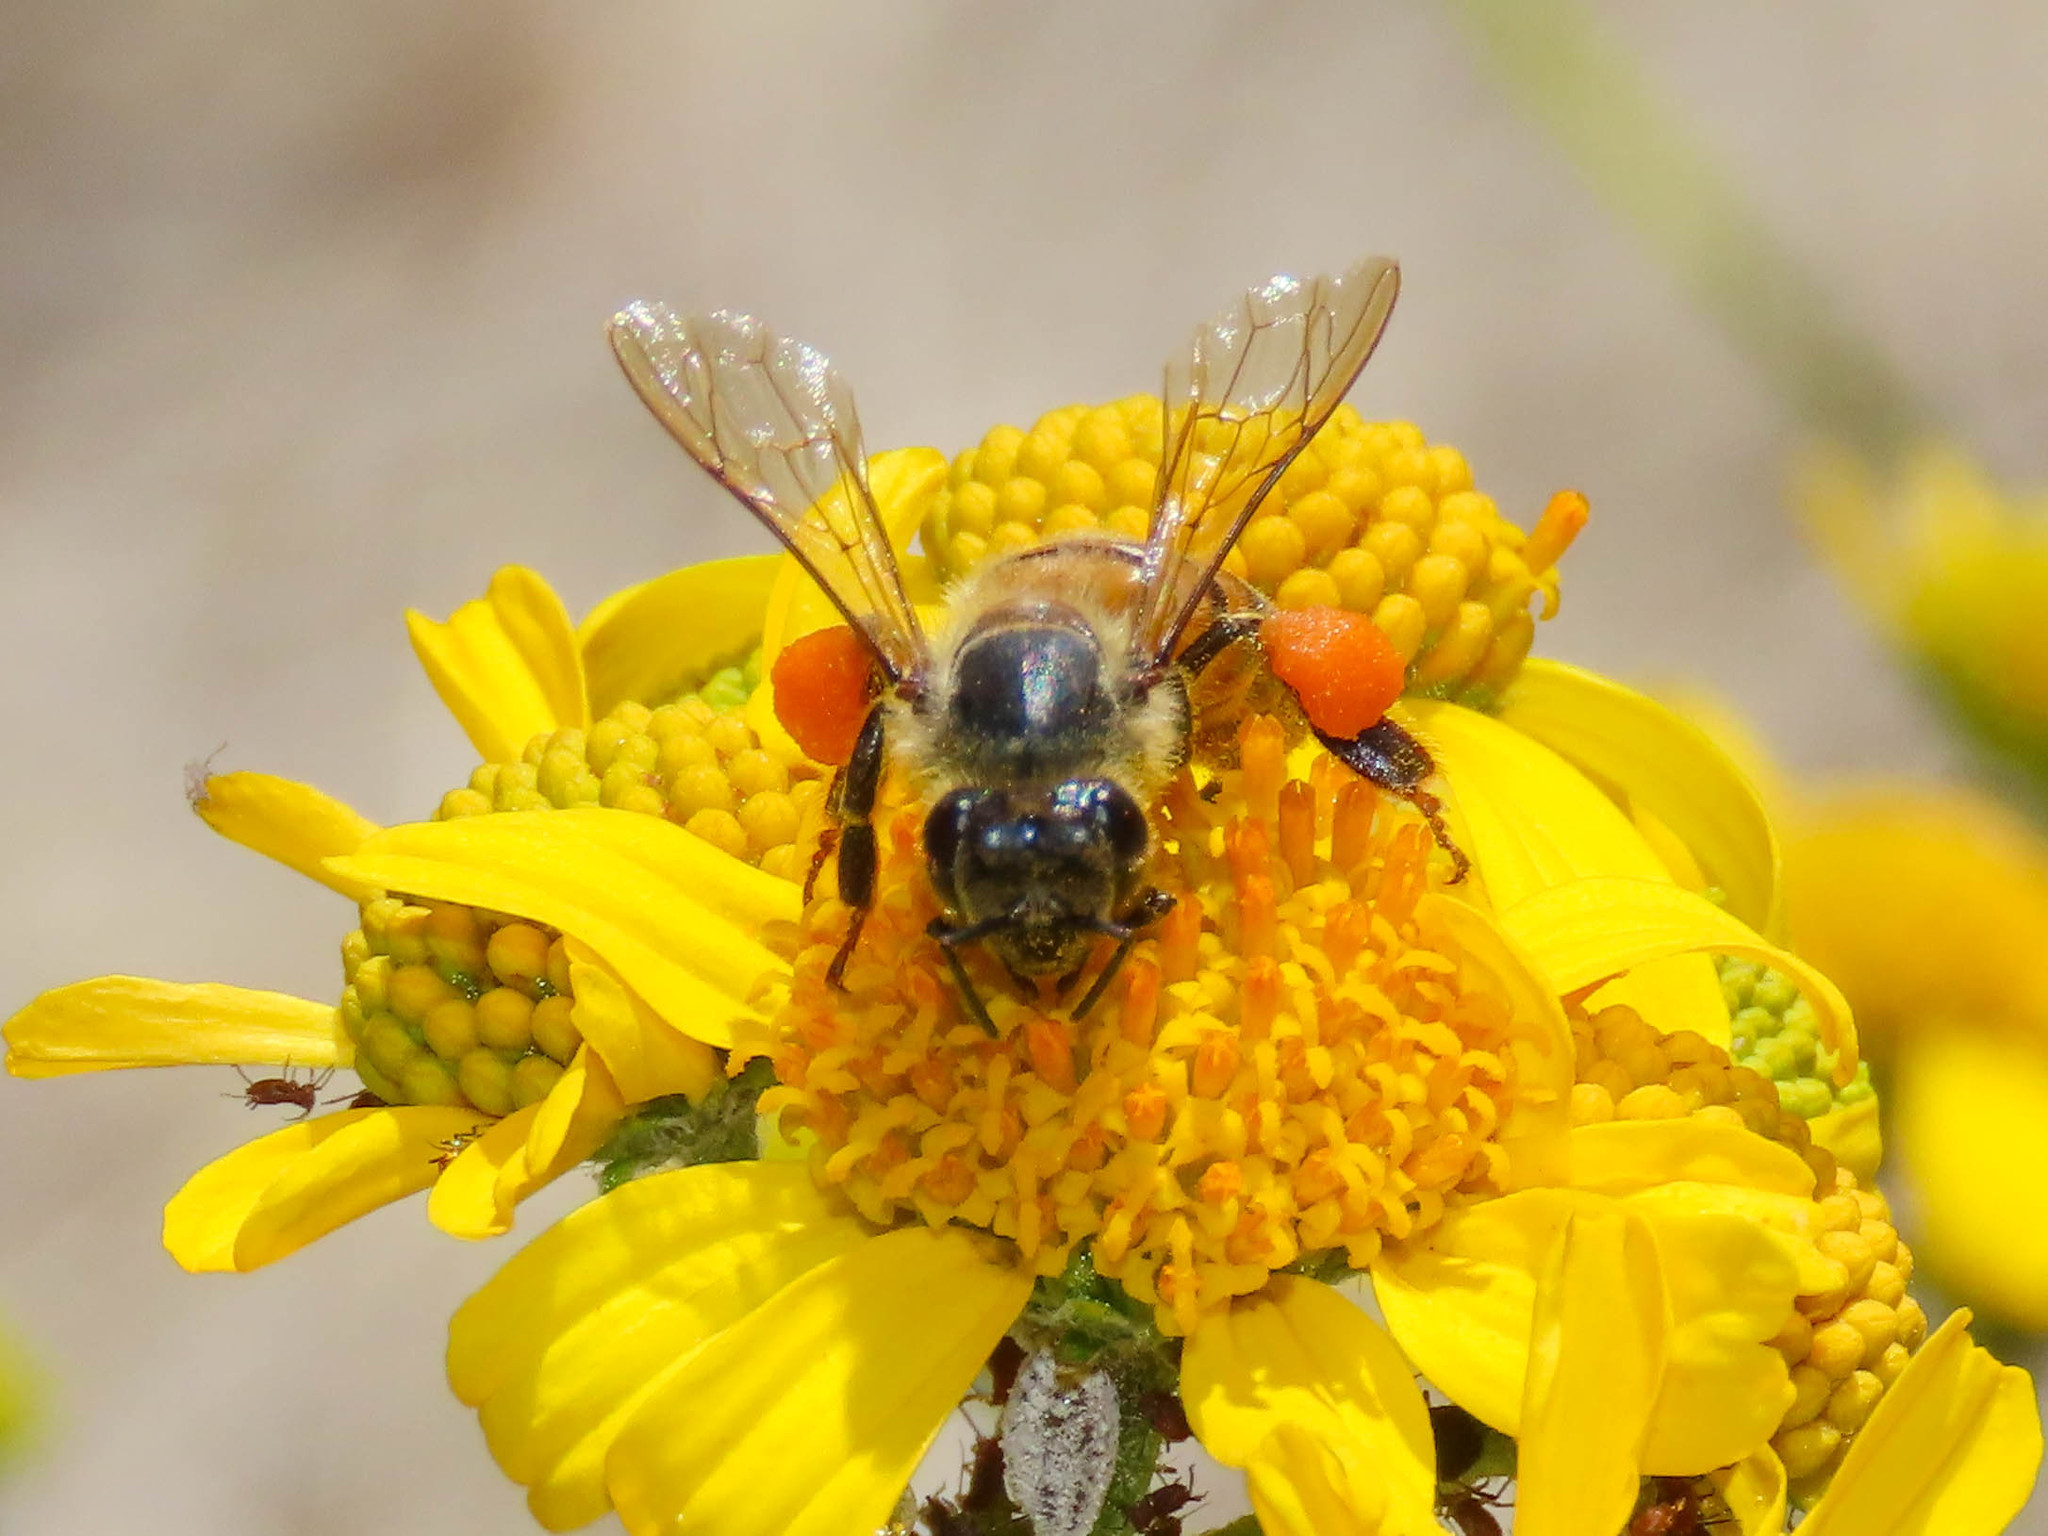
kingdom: Animalia
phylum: Arthropoda
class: Insecta
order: Hymenoptera
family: Apidae
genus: Apis
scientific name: Apis mellifera
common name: Honey bee
